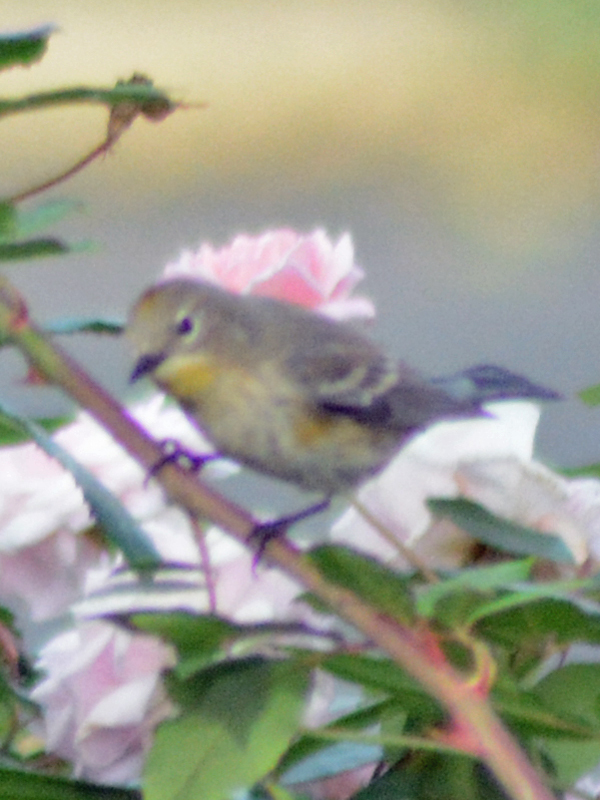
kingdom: Animalia
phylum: Chordata
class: Aves
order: Passeriformes
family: Parulidae
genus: Setophaga
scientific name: Setophaga coronata
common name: Myrtle warbler
